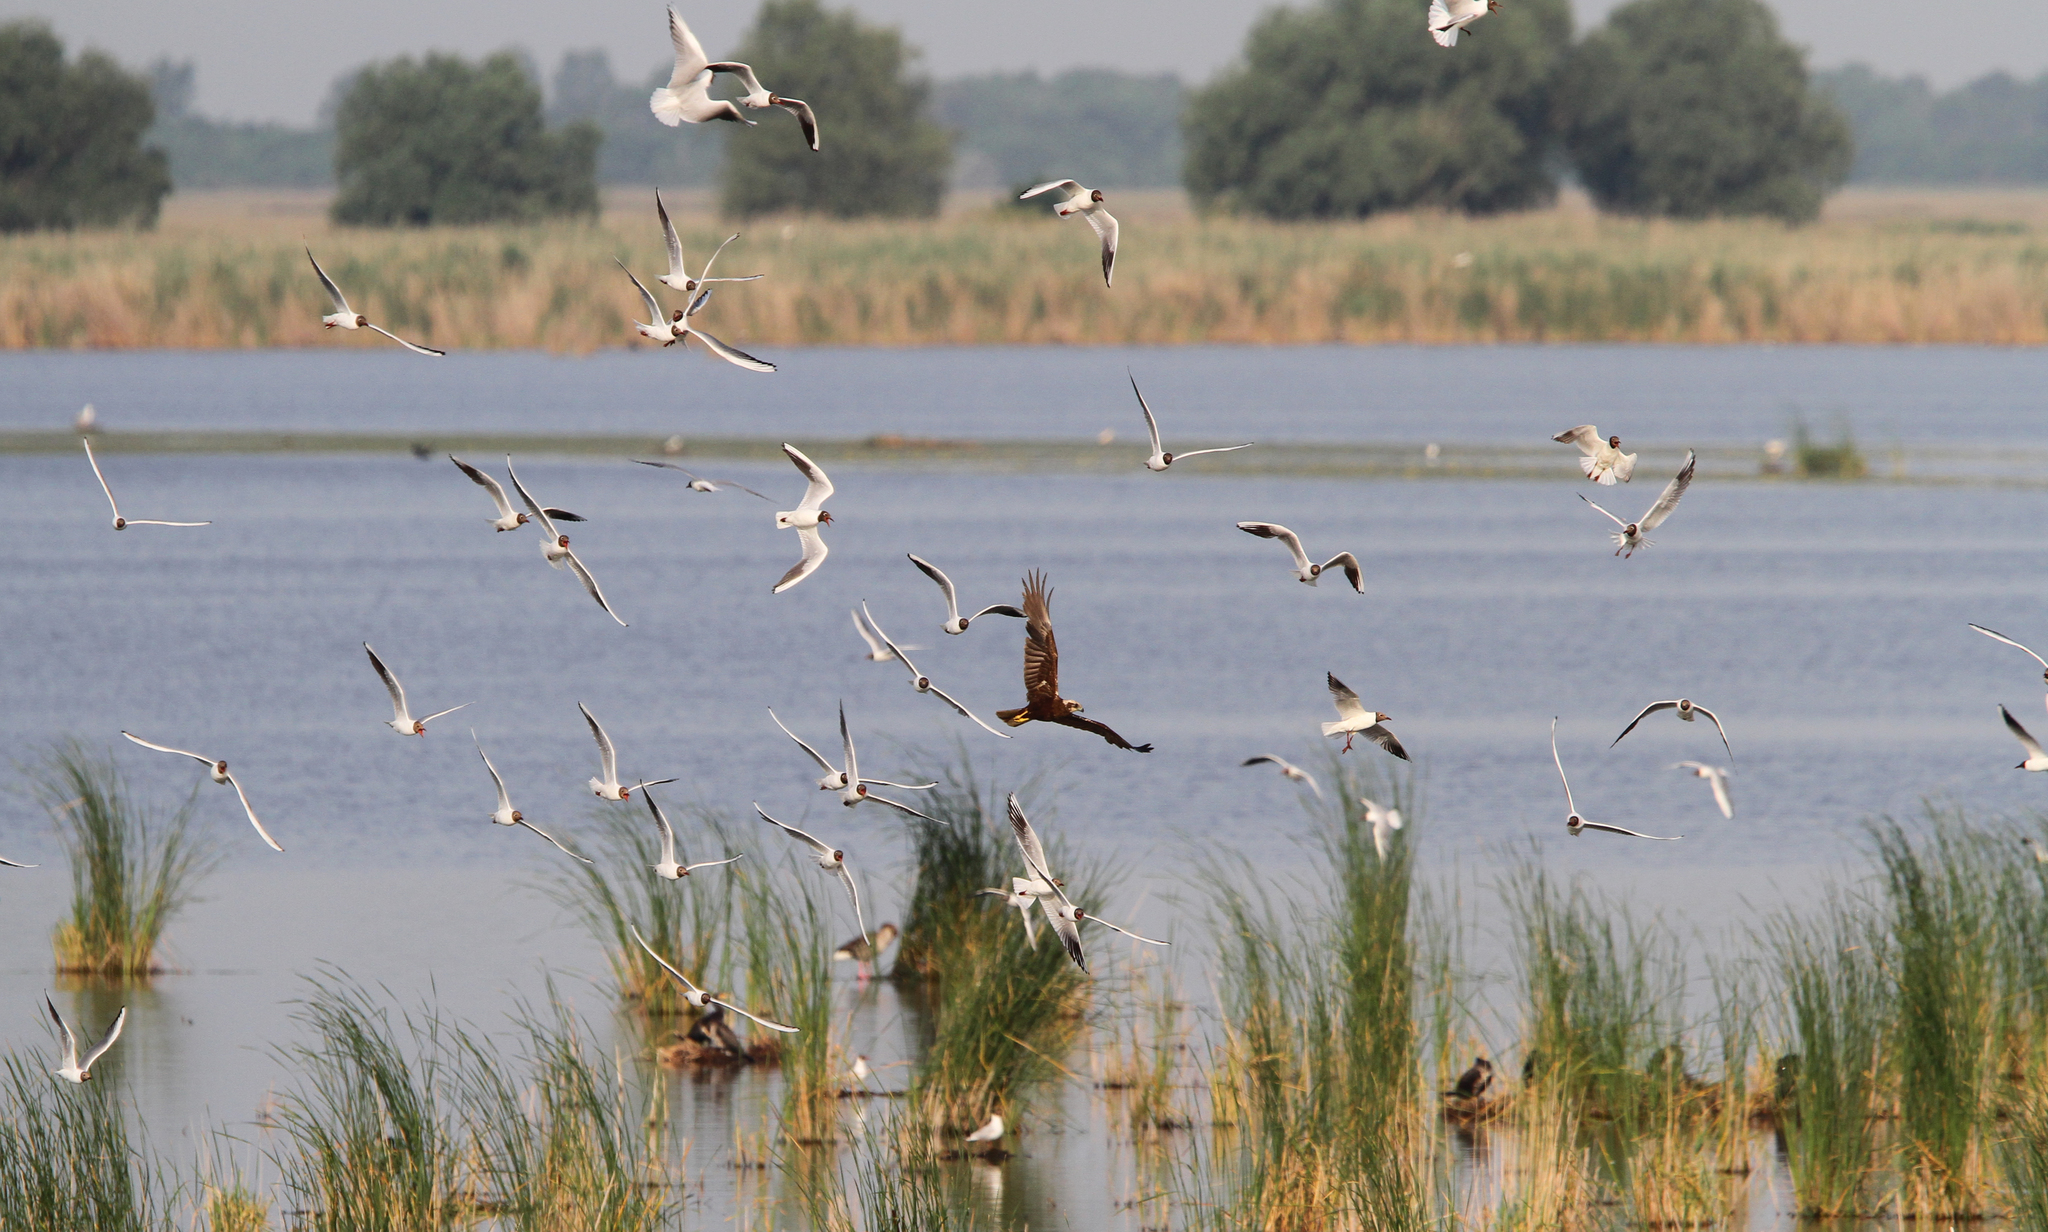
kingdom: Animalia
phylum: Chordata
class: Aves
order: Accipitriformes
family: Accipitridae
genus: Circus
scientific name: Circus aeruginosus
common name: Western marsh harrier
